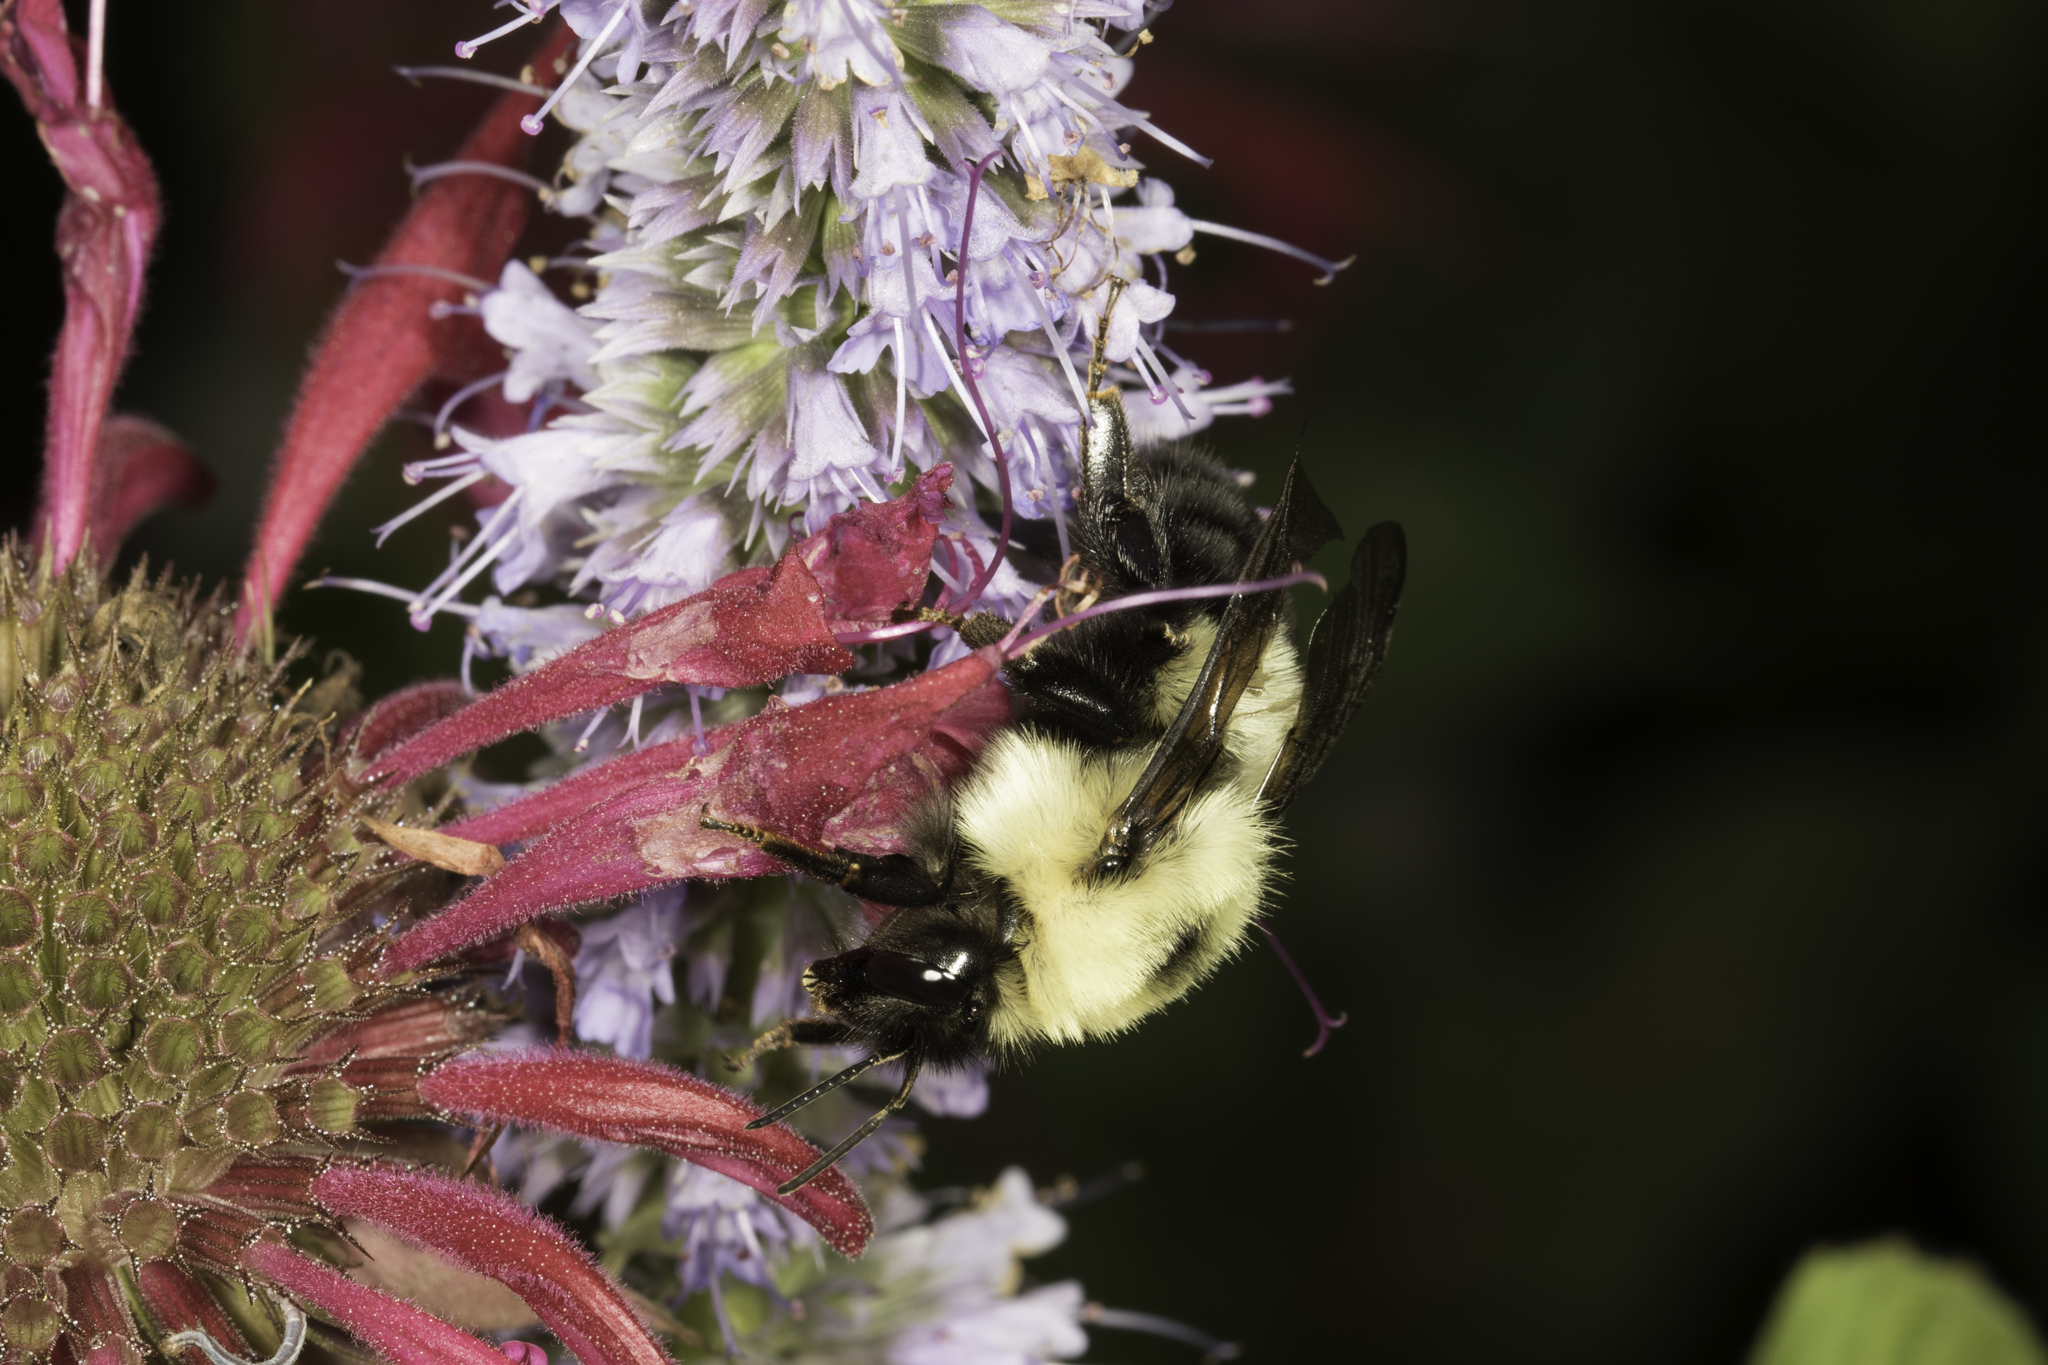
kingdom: Animalia
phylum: Arthropoda
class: Insecta
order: Hymenoptera
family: Apidae
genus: Bombus
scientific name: Bombus bimaculatus
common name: Two-spotted bumble bee
